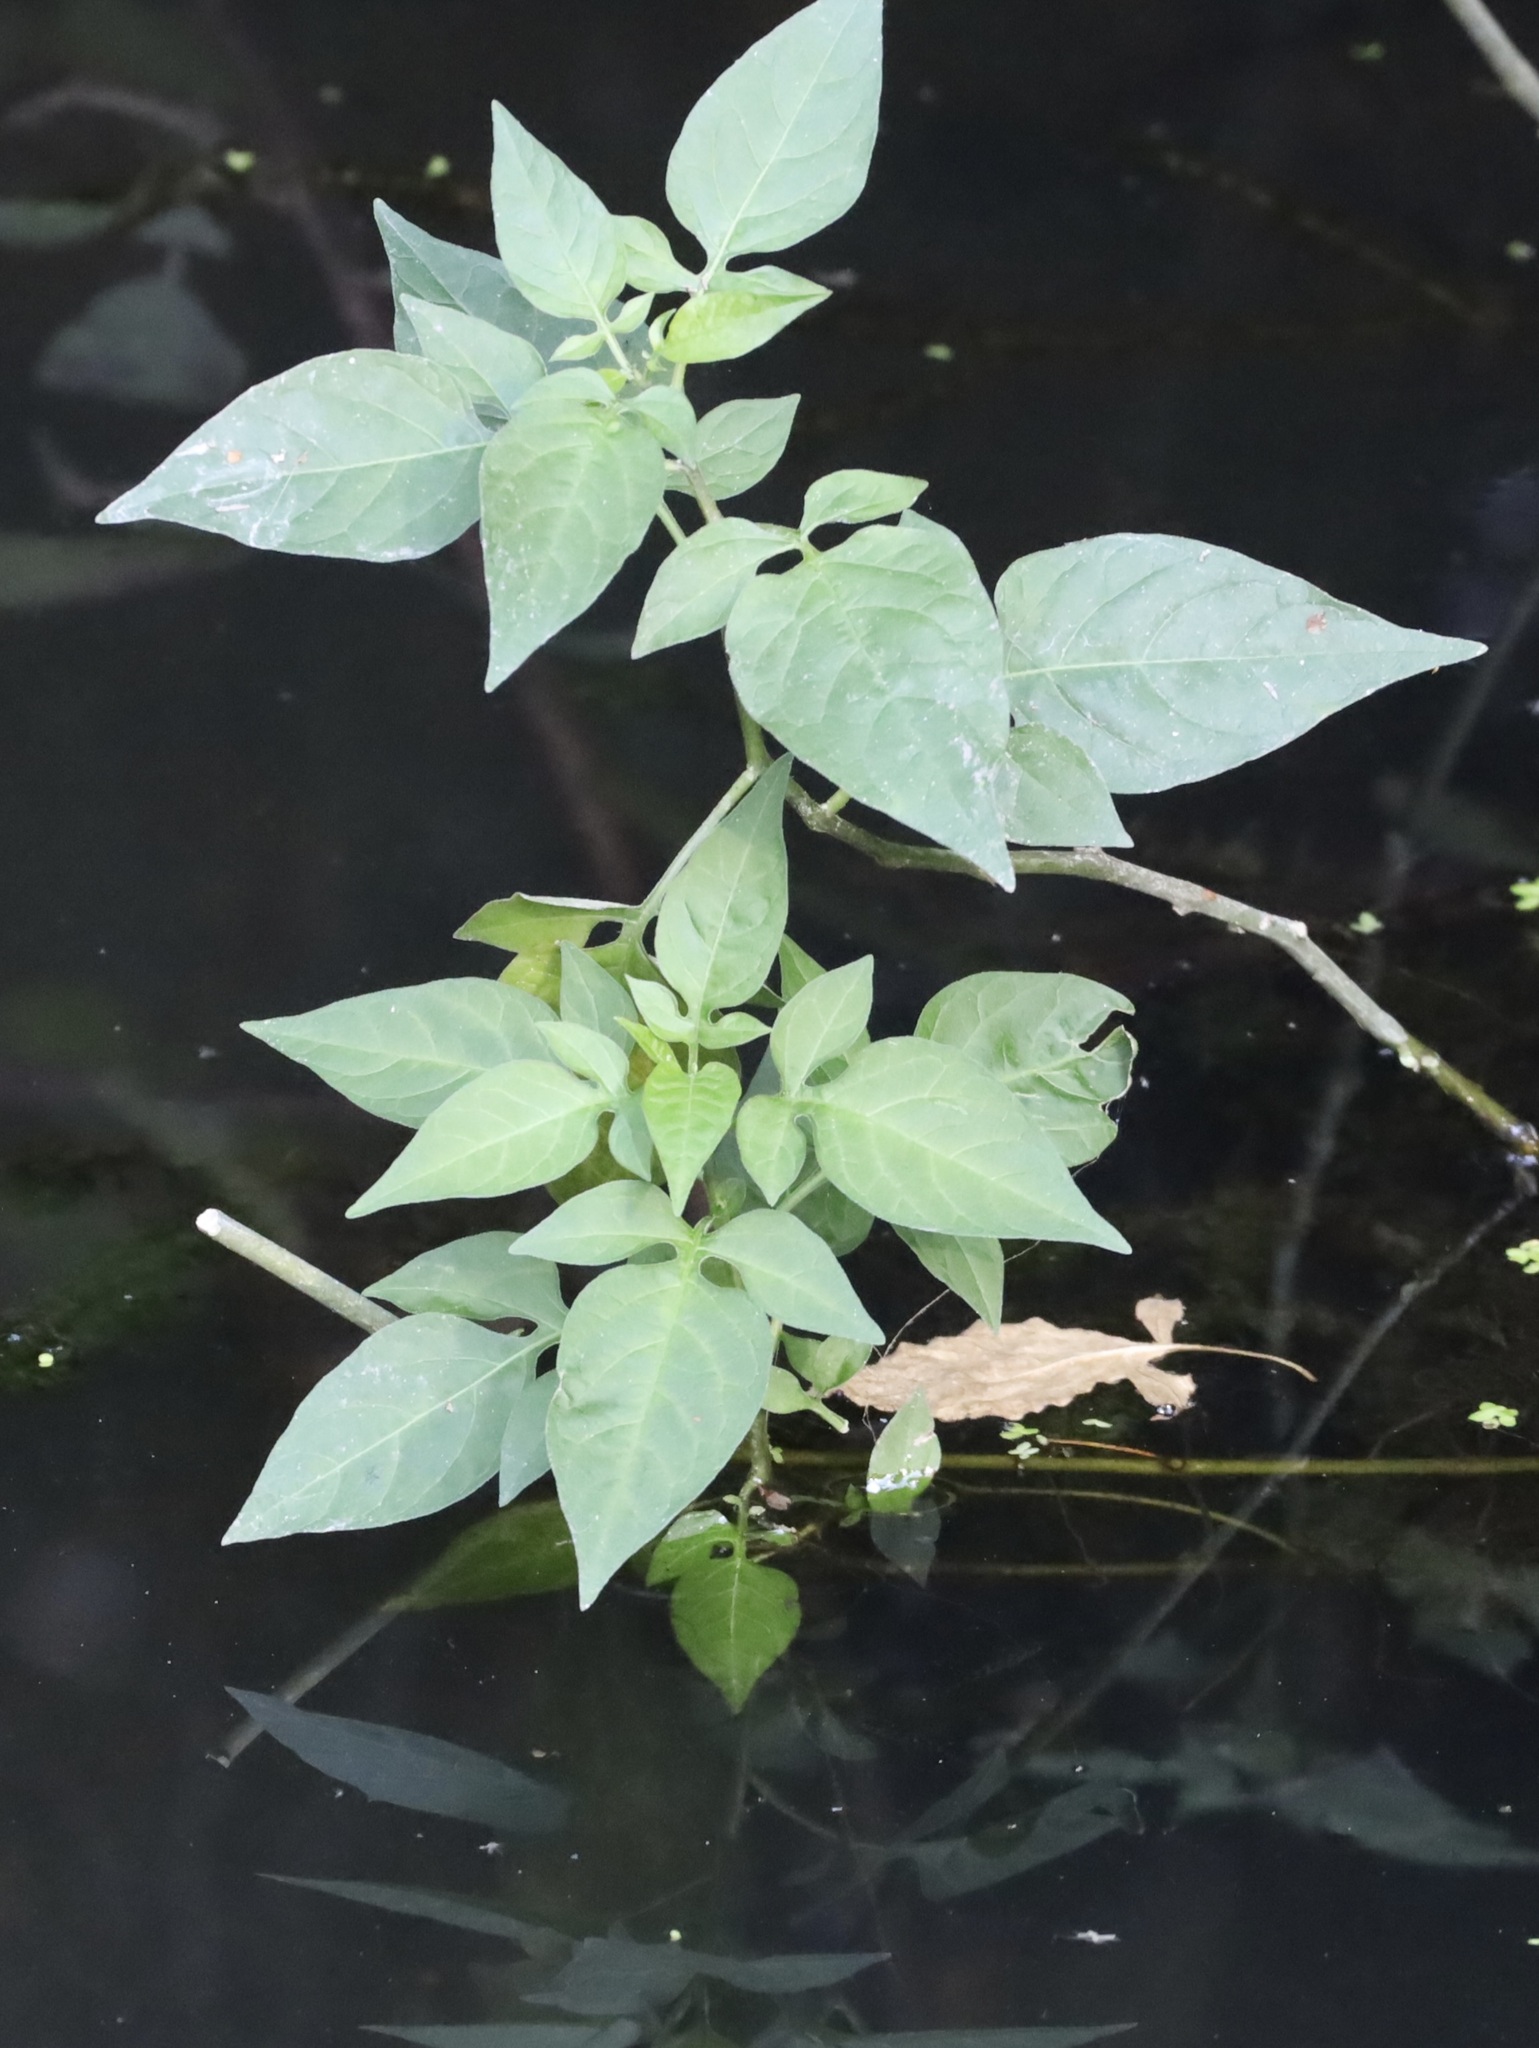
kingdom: Plantae
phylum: Tracheophyta
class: Magnoliopsida
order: Solanales
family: Solanaceae
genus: Solanum
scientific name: Solanum dulcamara
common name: Climbing nightshade
